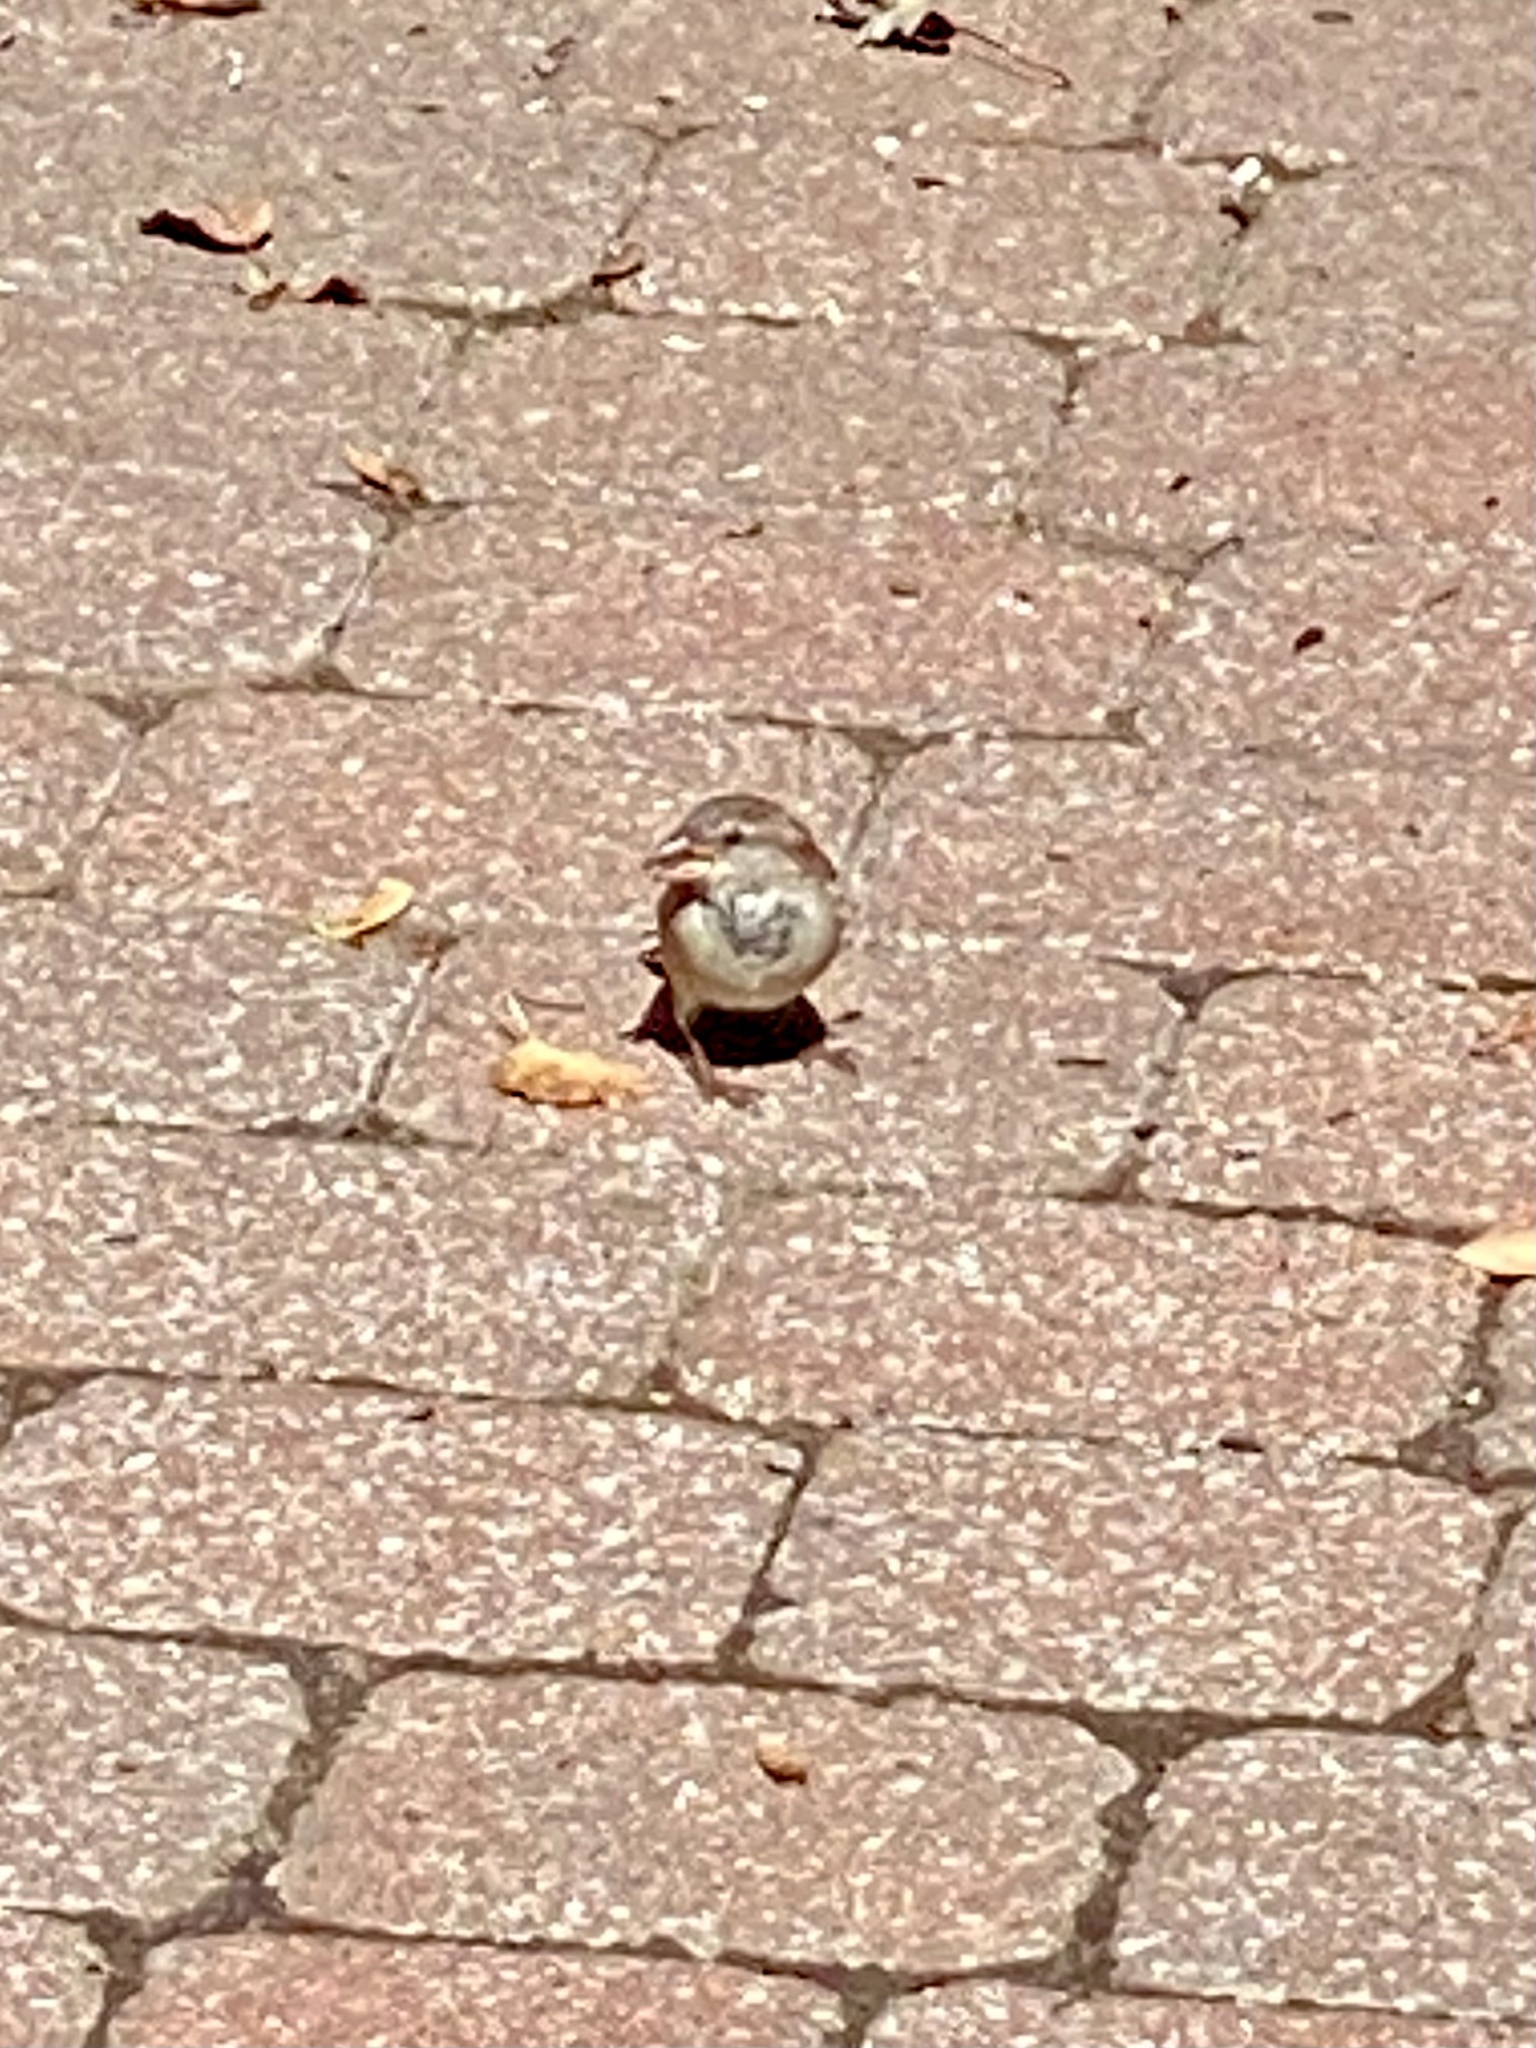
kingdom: Animalia
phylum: Chordata
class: Aves
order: Passeriformes
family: Passeridae
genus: Passer
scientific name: Passer domesticus
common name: House sparrow
